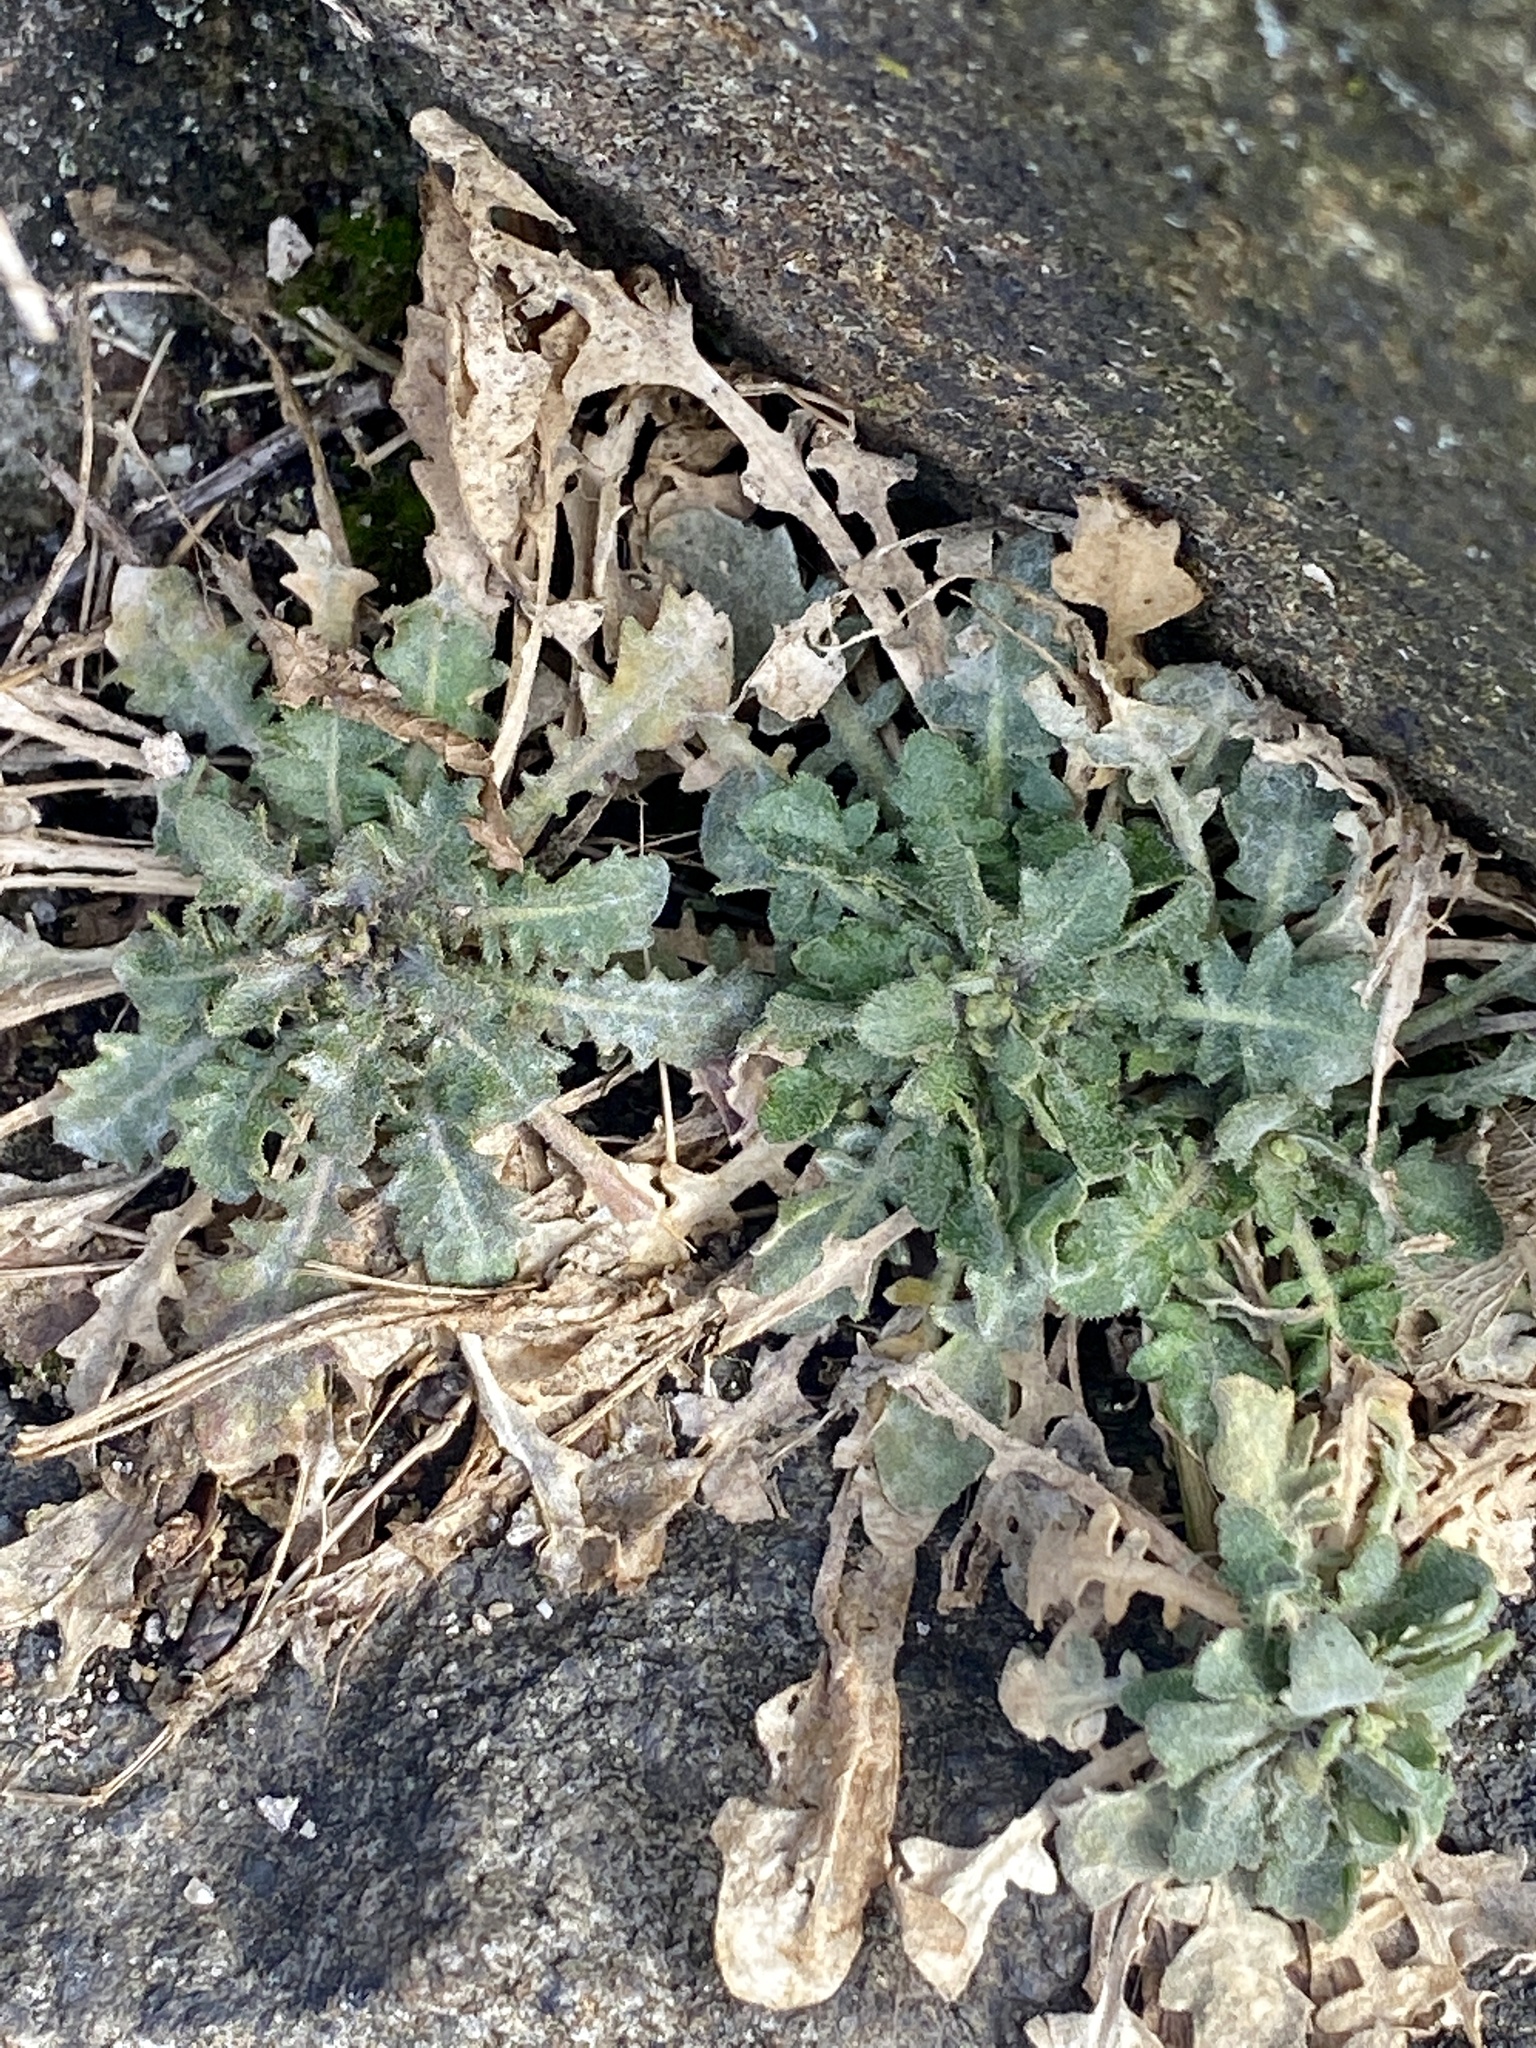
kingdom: Plantae
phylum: Tracheophyta
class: Magnoliopsida
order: Brassicales
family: Brassicaceae
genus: Arabidopsis
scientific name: Arabidopsis lyrata
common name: Lyrate rockcress
